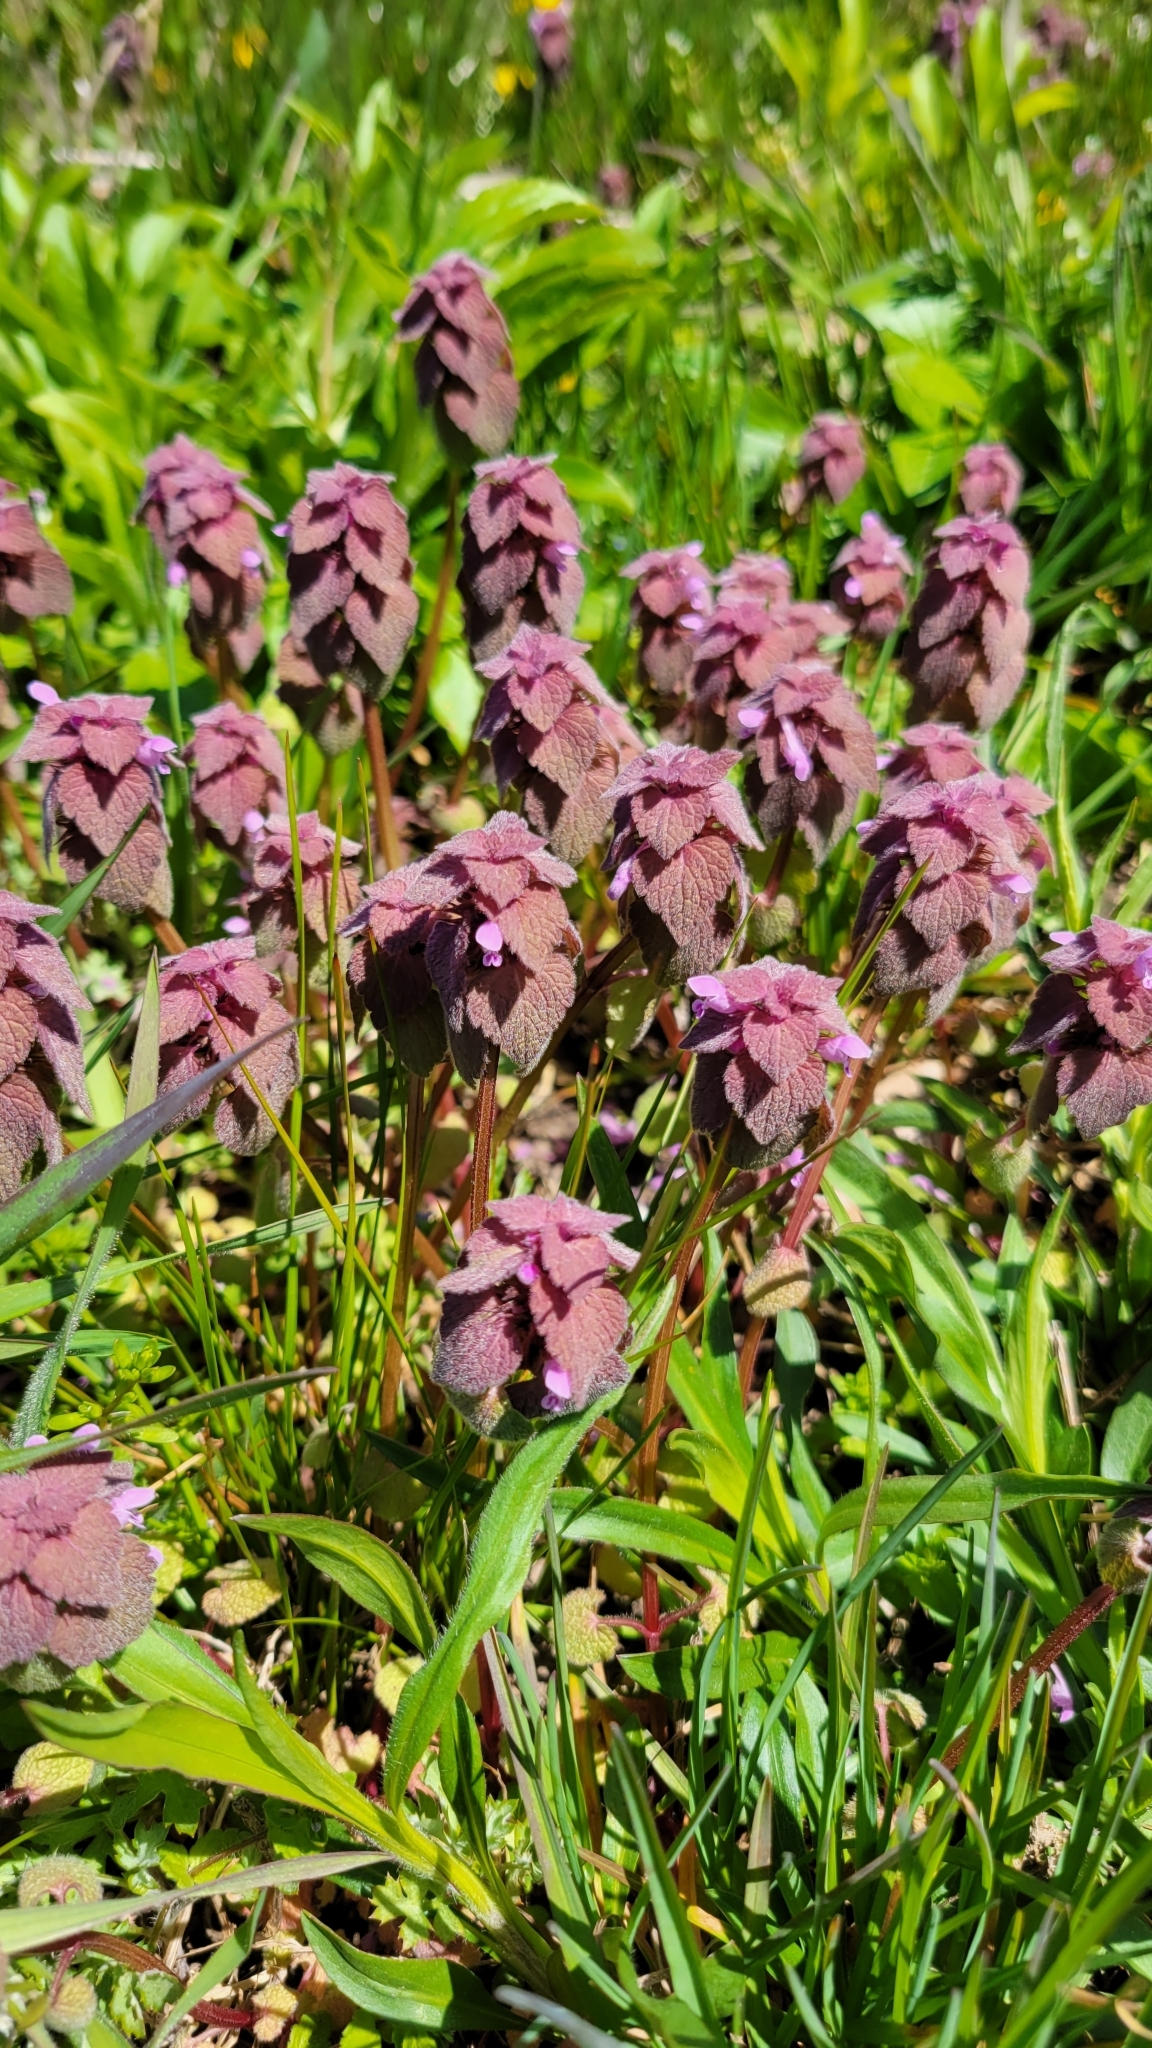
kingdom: Plantae
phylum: Tracheophyta
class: Magnoliopsida
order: Lamiales
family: Lamiaceae
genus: Lamium
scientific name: Lamium purpureum
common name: Red dead-nettle
